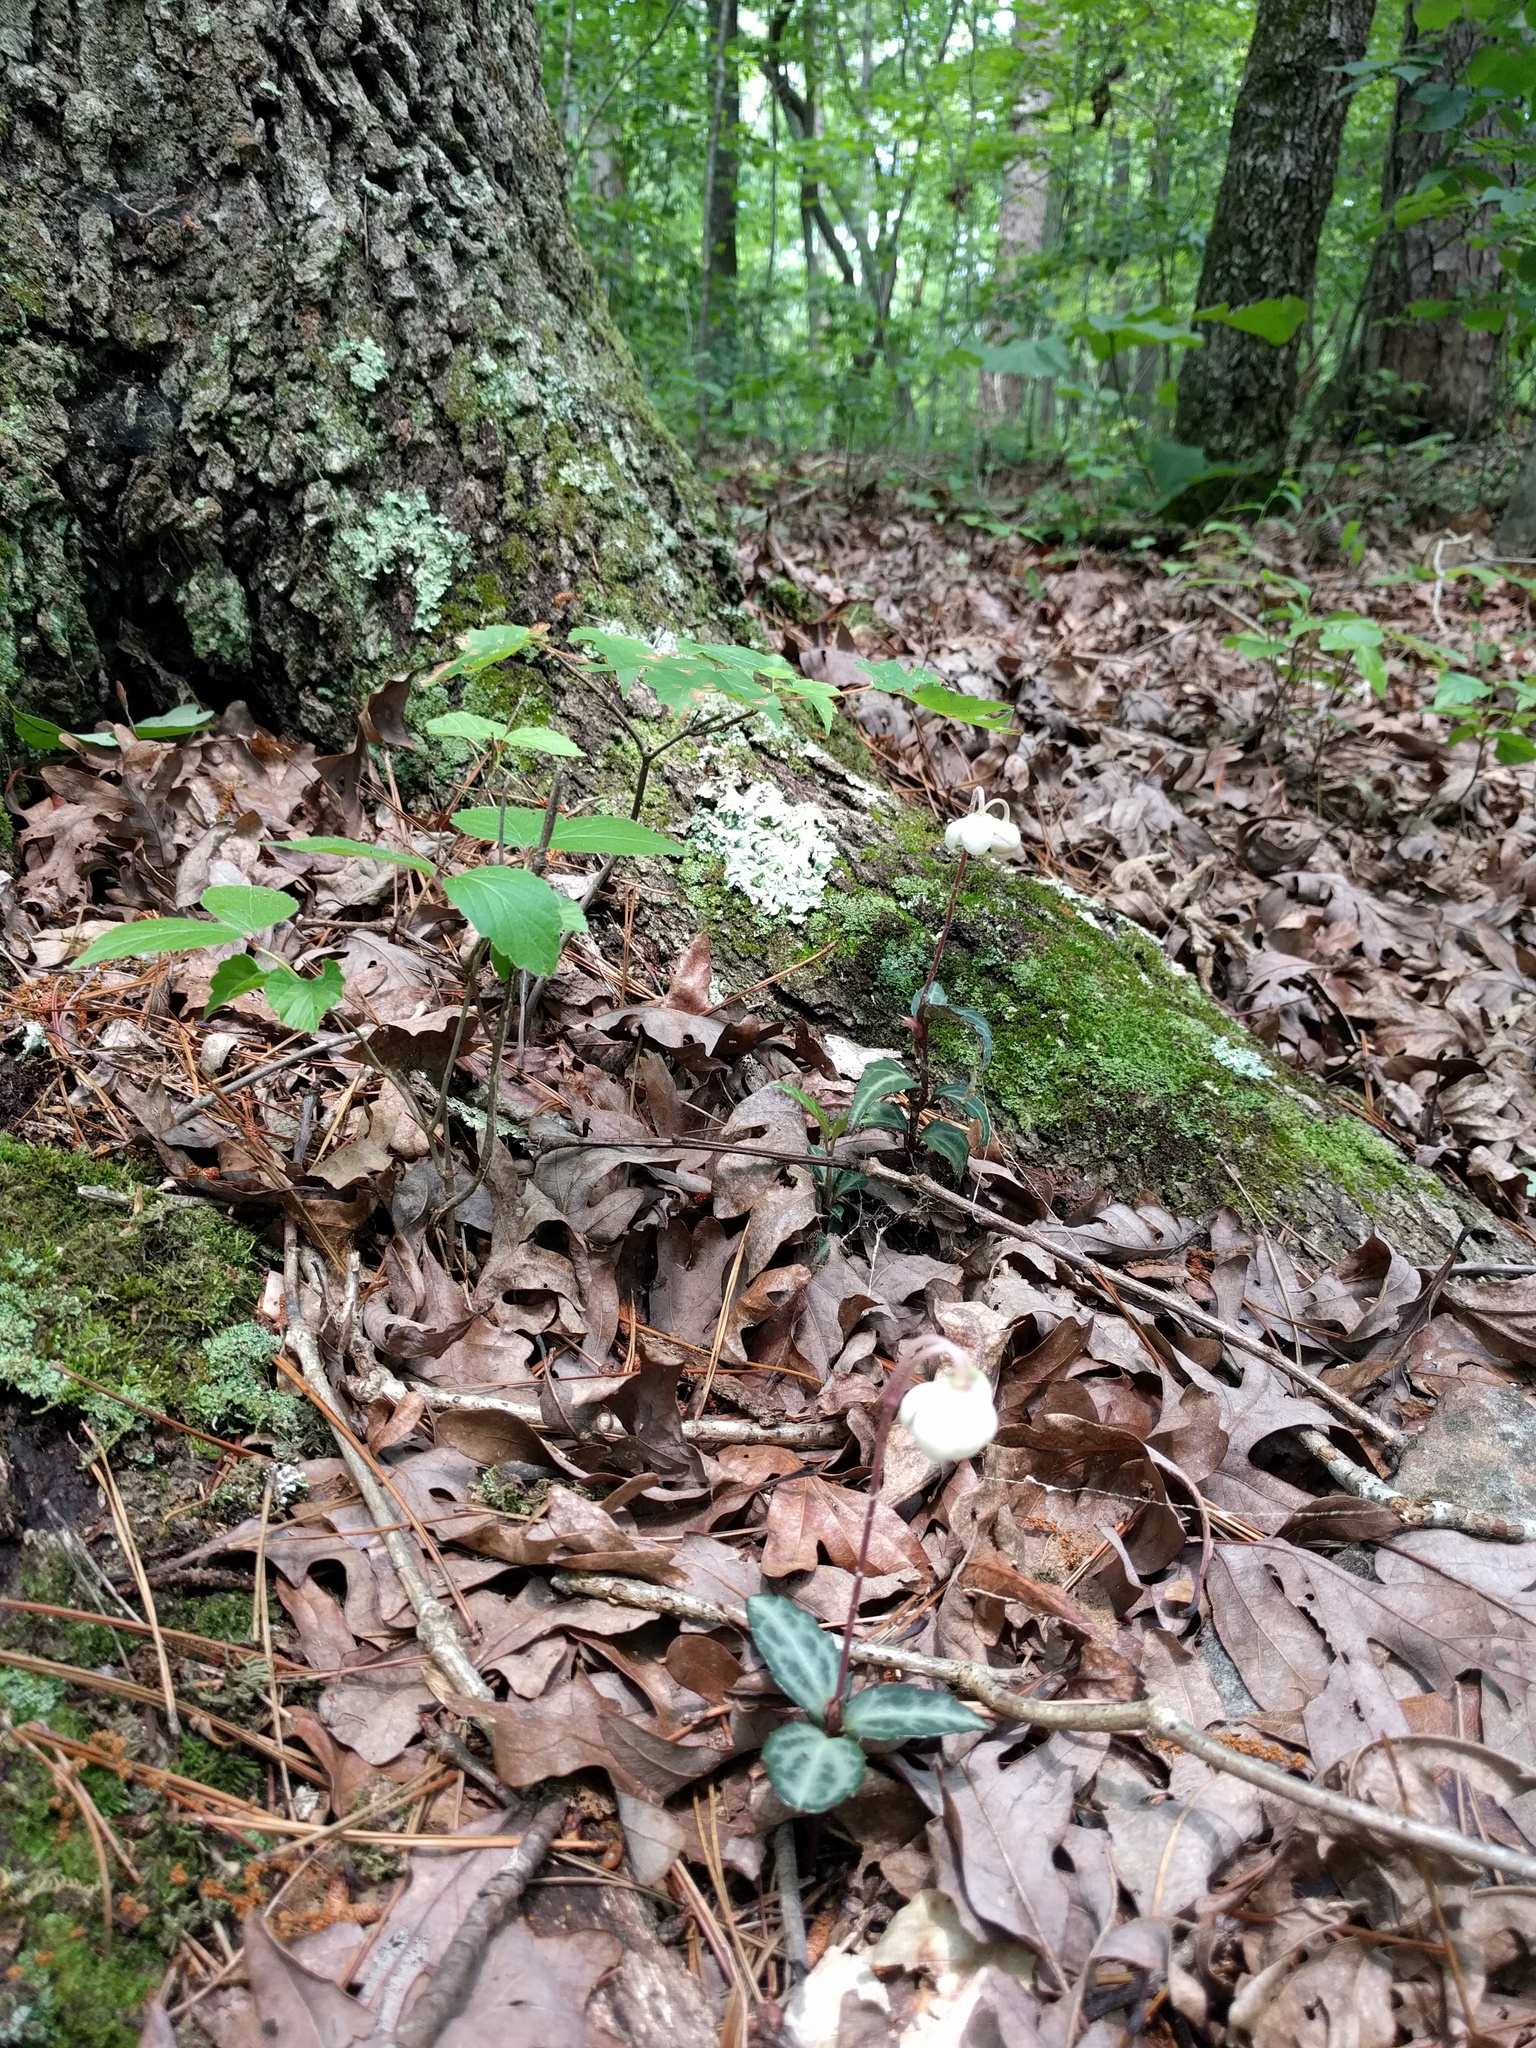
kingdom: Plantae
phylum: Tracheophyta
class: Magnoliopsida
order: Ericales
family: Ericaceae
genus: Chimaphila
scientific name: Chimaphila maculata
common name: Spotted pipsissewa
